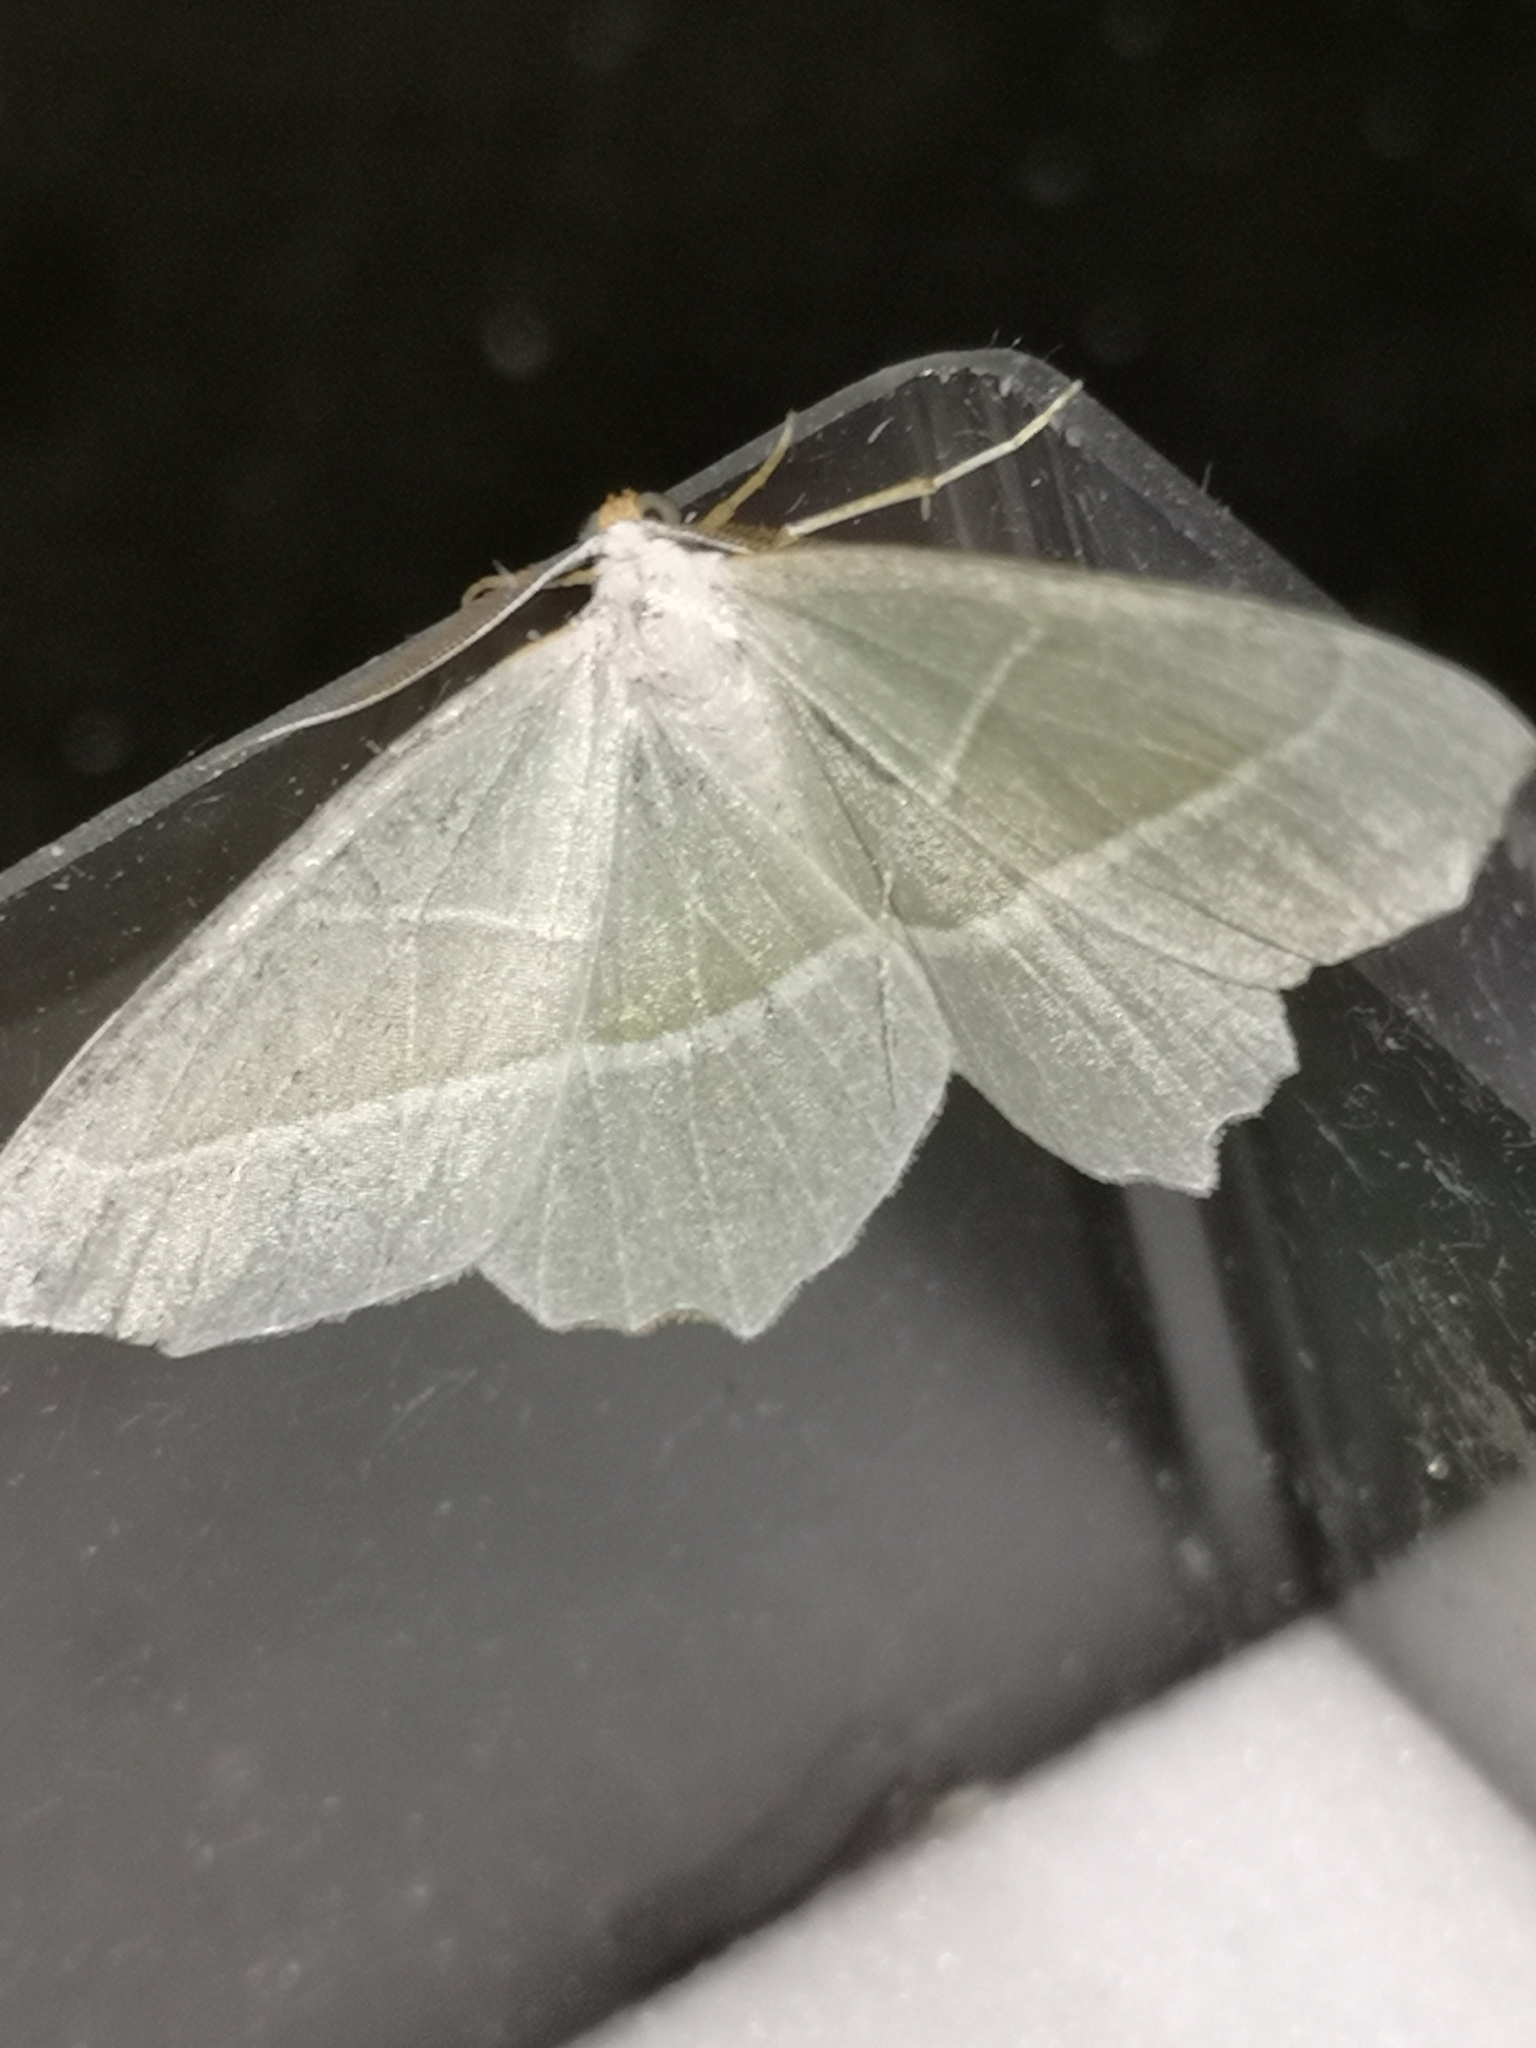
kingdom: Animalia
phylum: Arthropoda
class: Insecta
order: Lepidoptera
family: Geometridae
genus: Campaea
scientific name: Campaea margaritaria
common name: Light emerald
